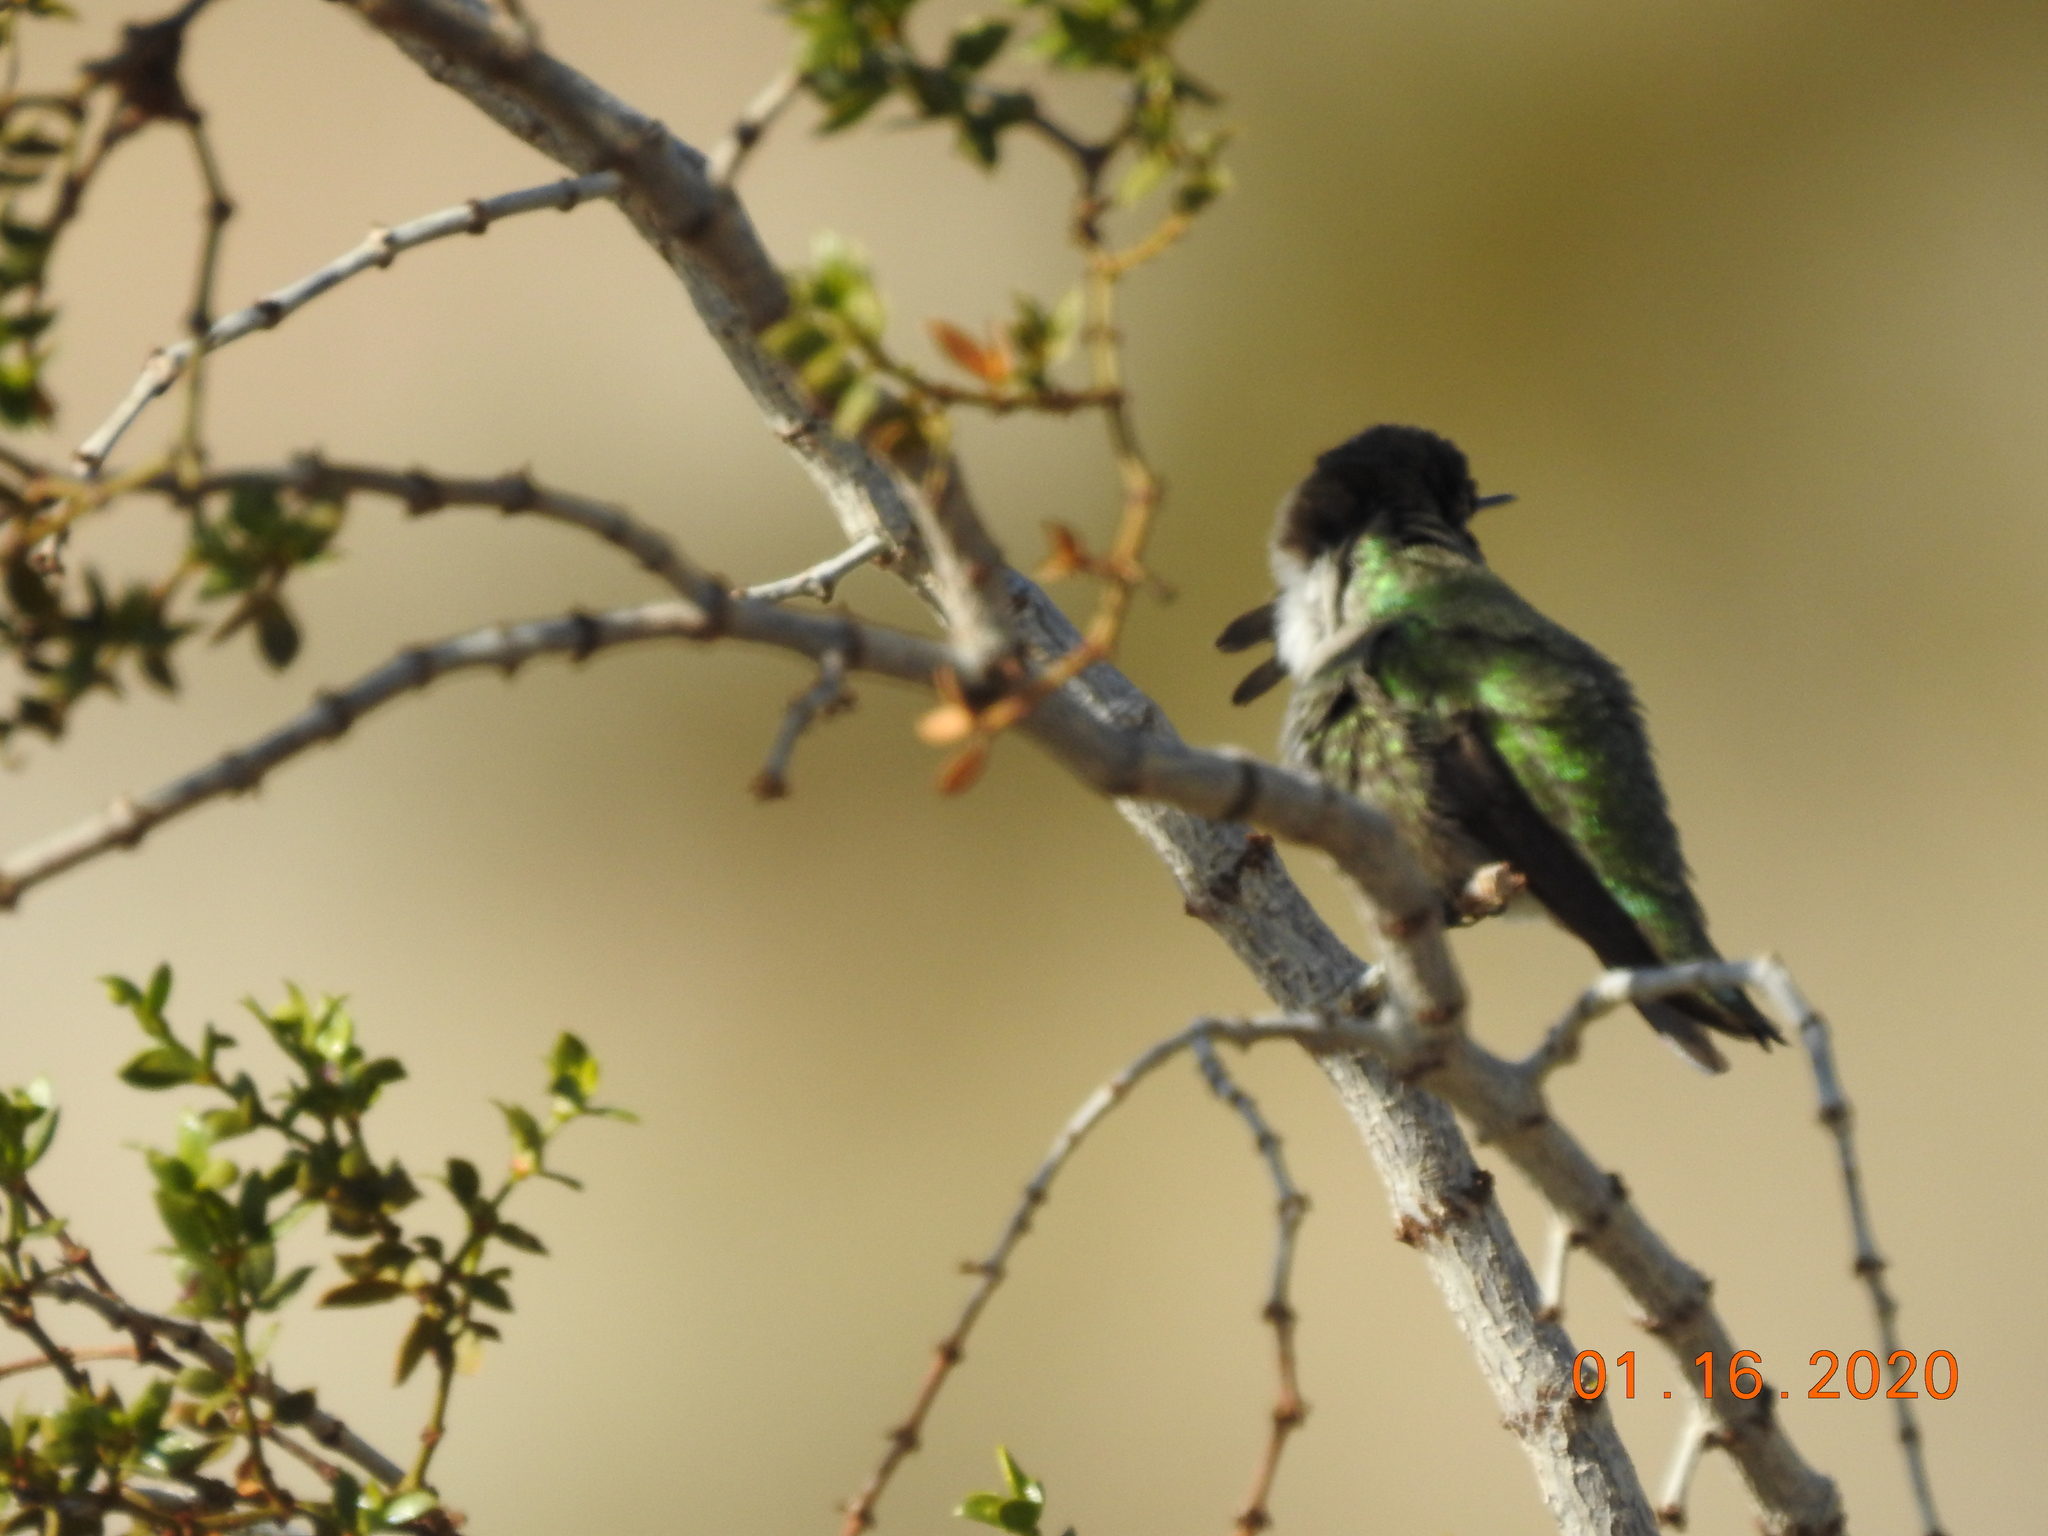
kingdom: Animalia
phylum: Chordata
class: Aves
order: Apodiformes
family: Trochilidae
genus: Calypte
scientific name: Calypte costae
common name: Costa's hummingbird
